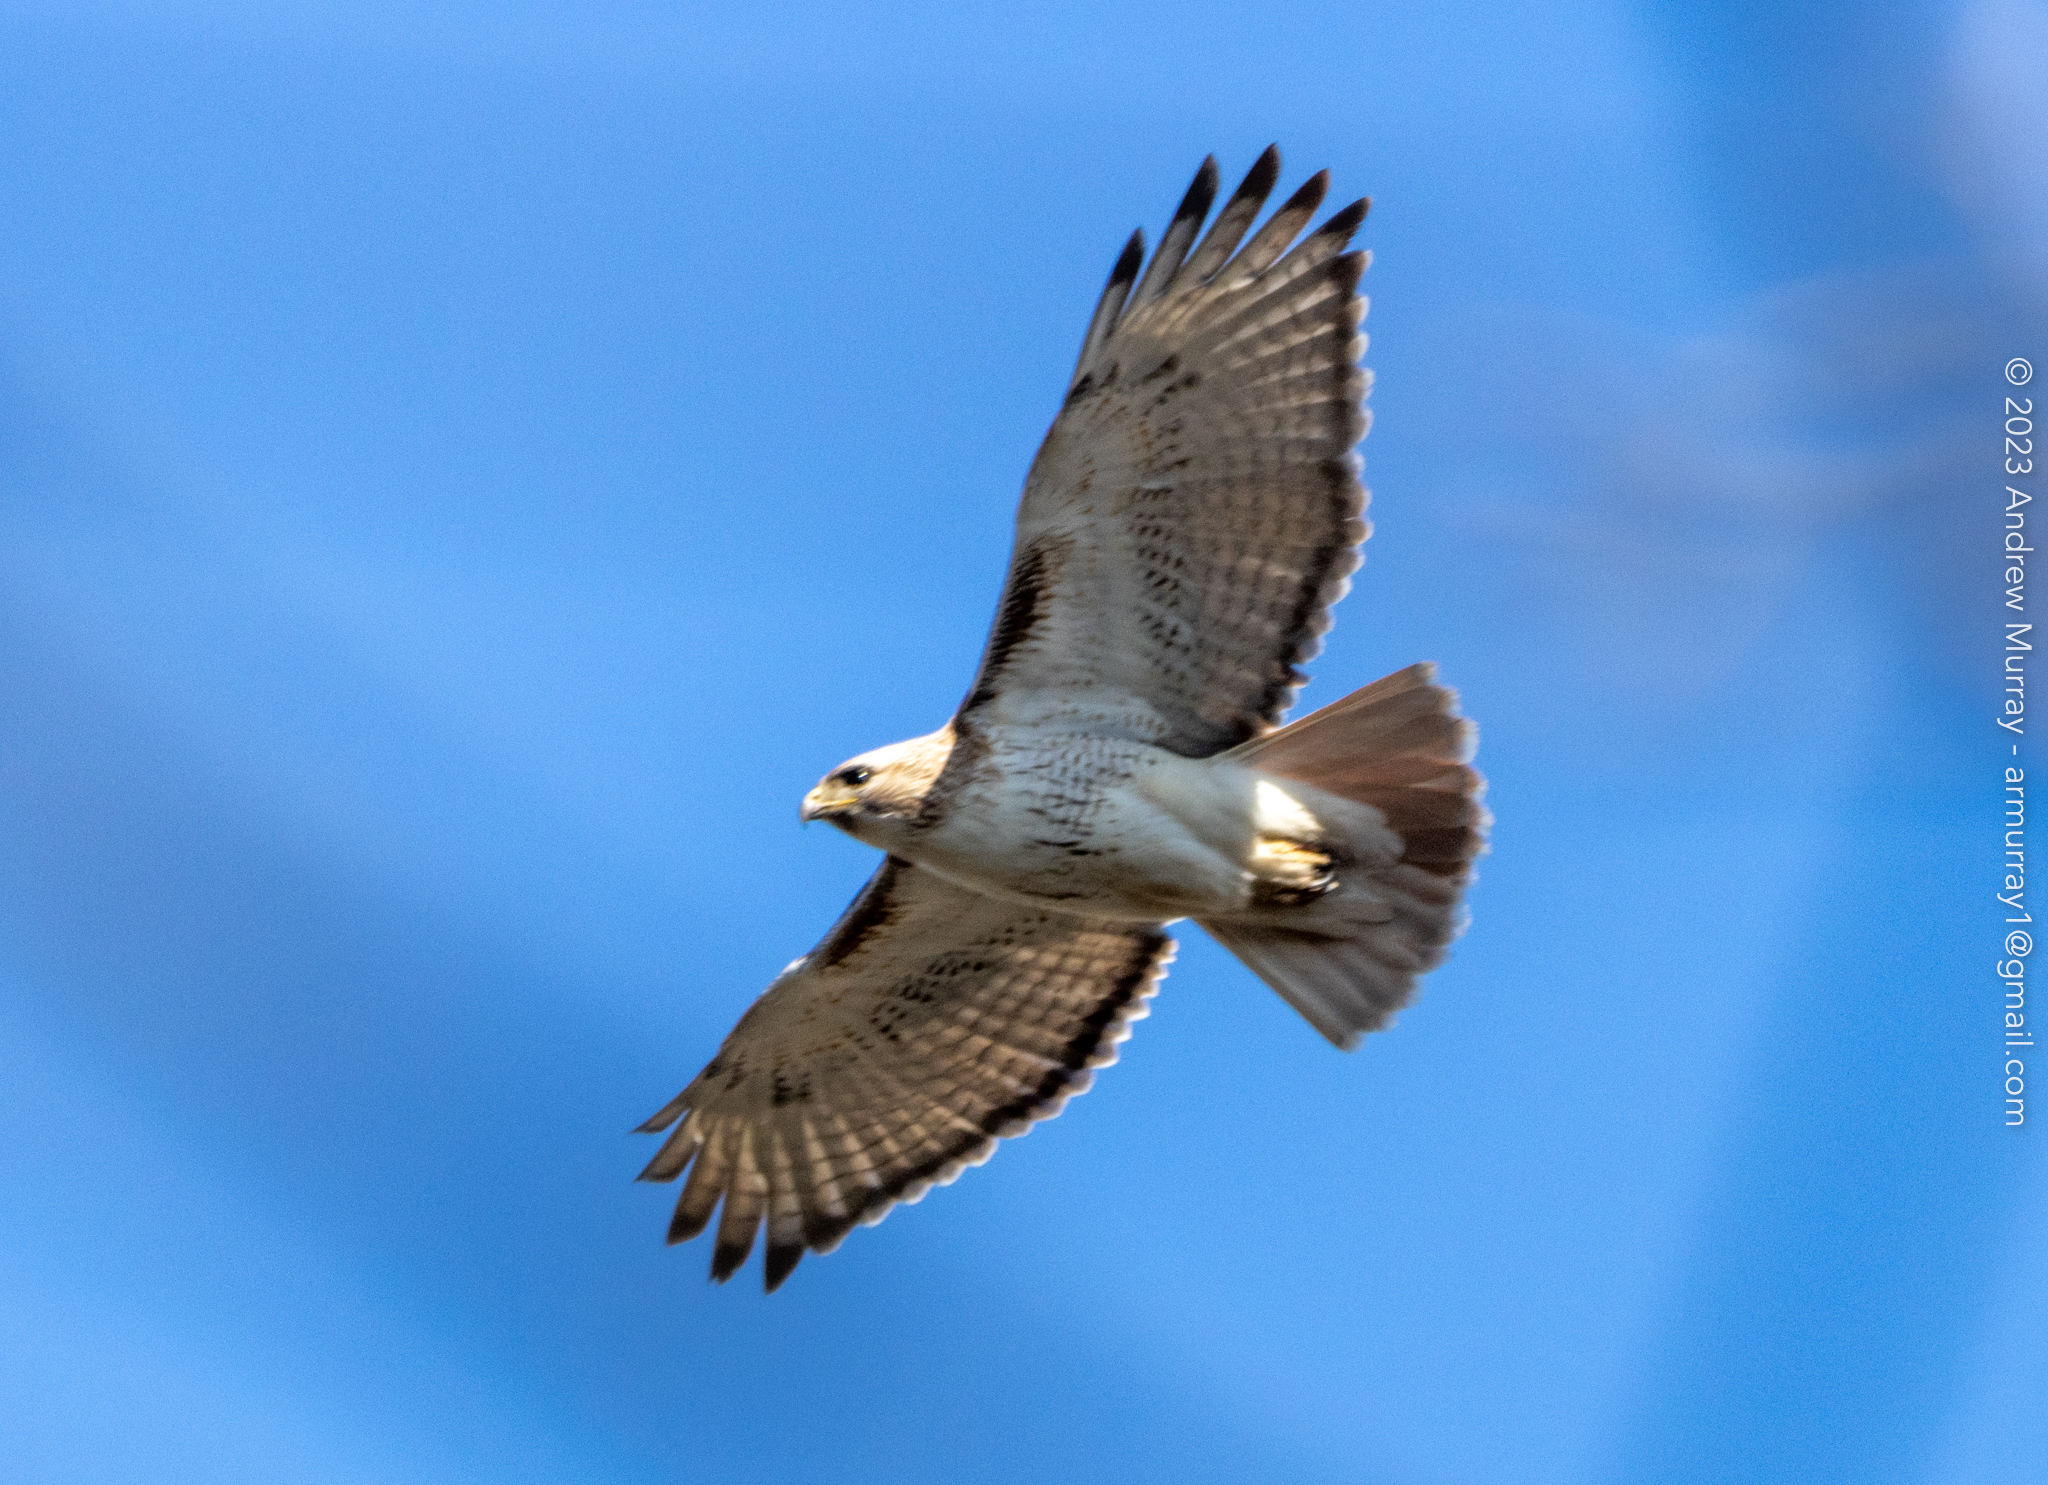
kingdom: Animalia
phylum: Chordata
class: Aves
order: Accipitriformes
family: Accipitridae
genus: Buteo
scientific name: Buteo jamaicensis
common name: Red-tailed hawk
